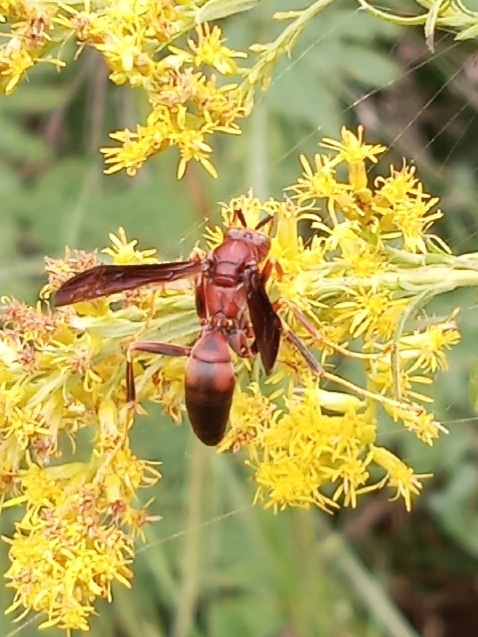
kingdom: Animalia
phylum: Arthropoda
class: Insecta
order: Hymenoptera
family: Eumenidae
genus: Polistes
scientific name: Polistes metricus
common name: Metric paper wasp
